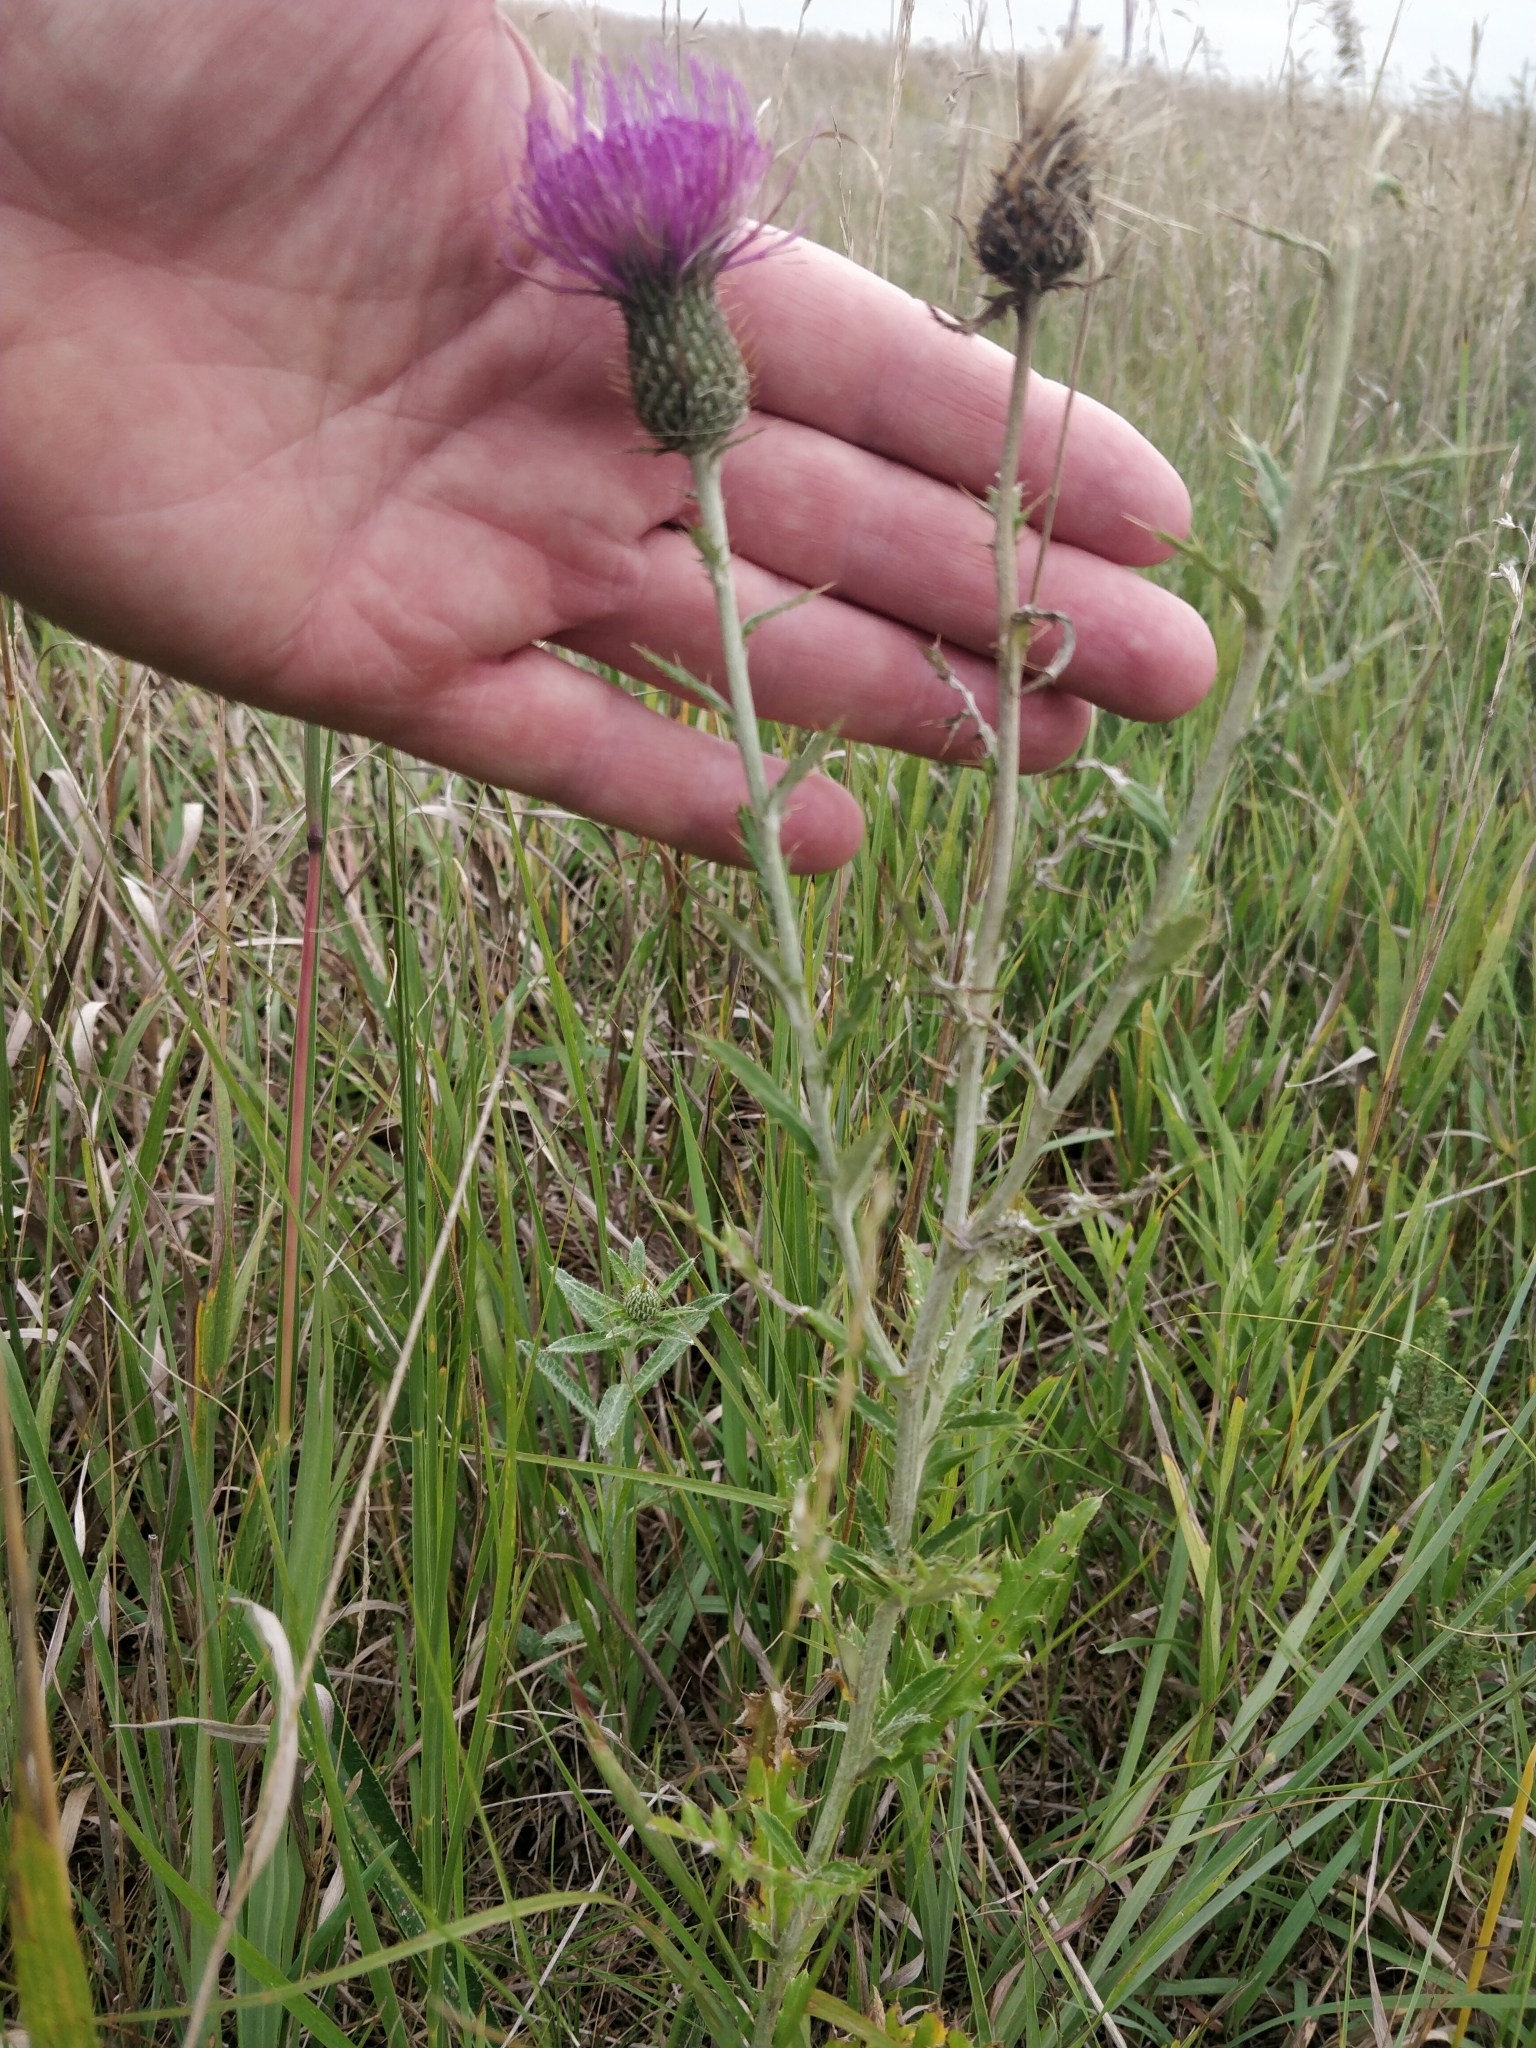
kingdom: Plantae
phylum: Tracheophyta
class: Magnoliopsida
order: Asterales
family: Asteraceae
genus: Cirsium
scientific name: Cirsium flodmanii
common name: Flodman's thistle
